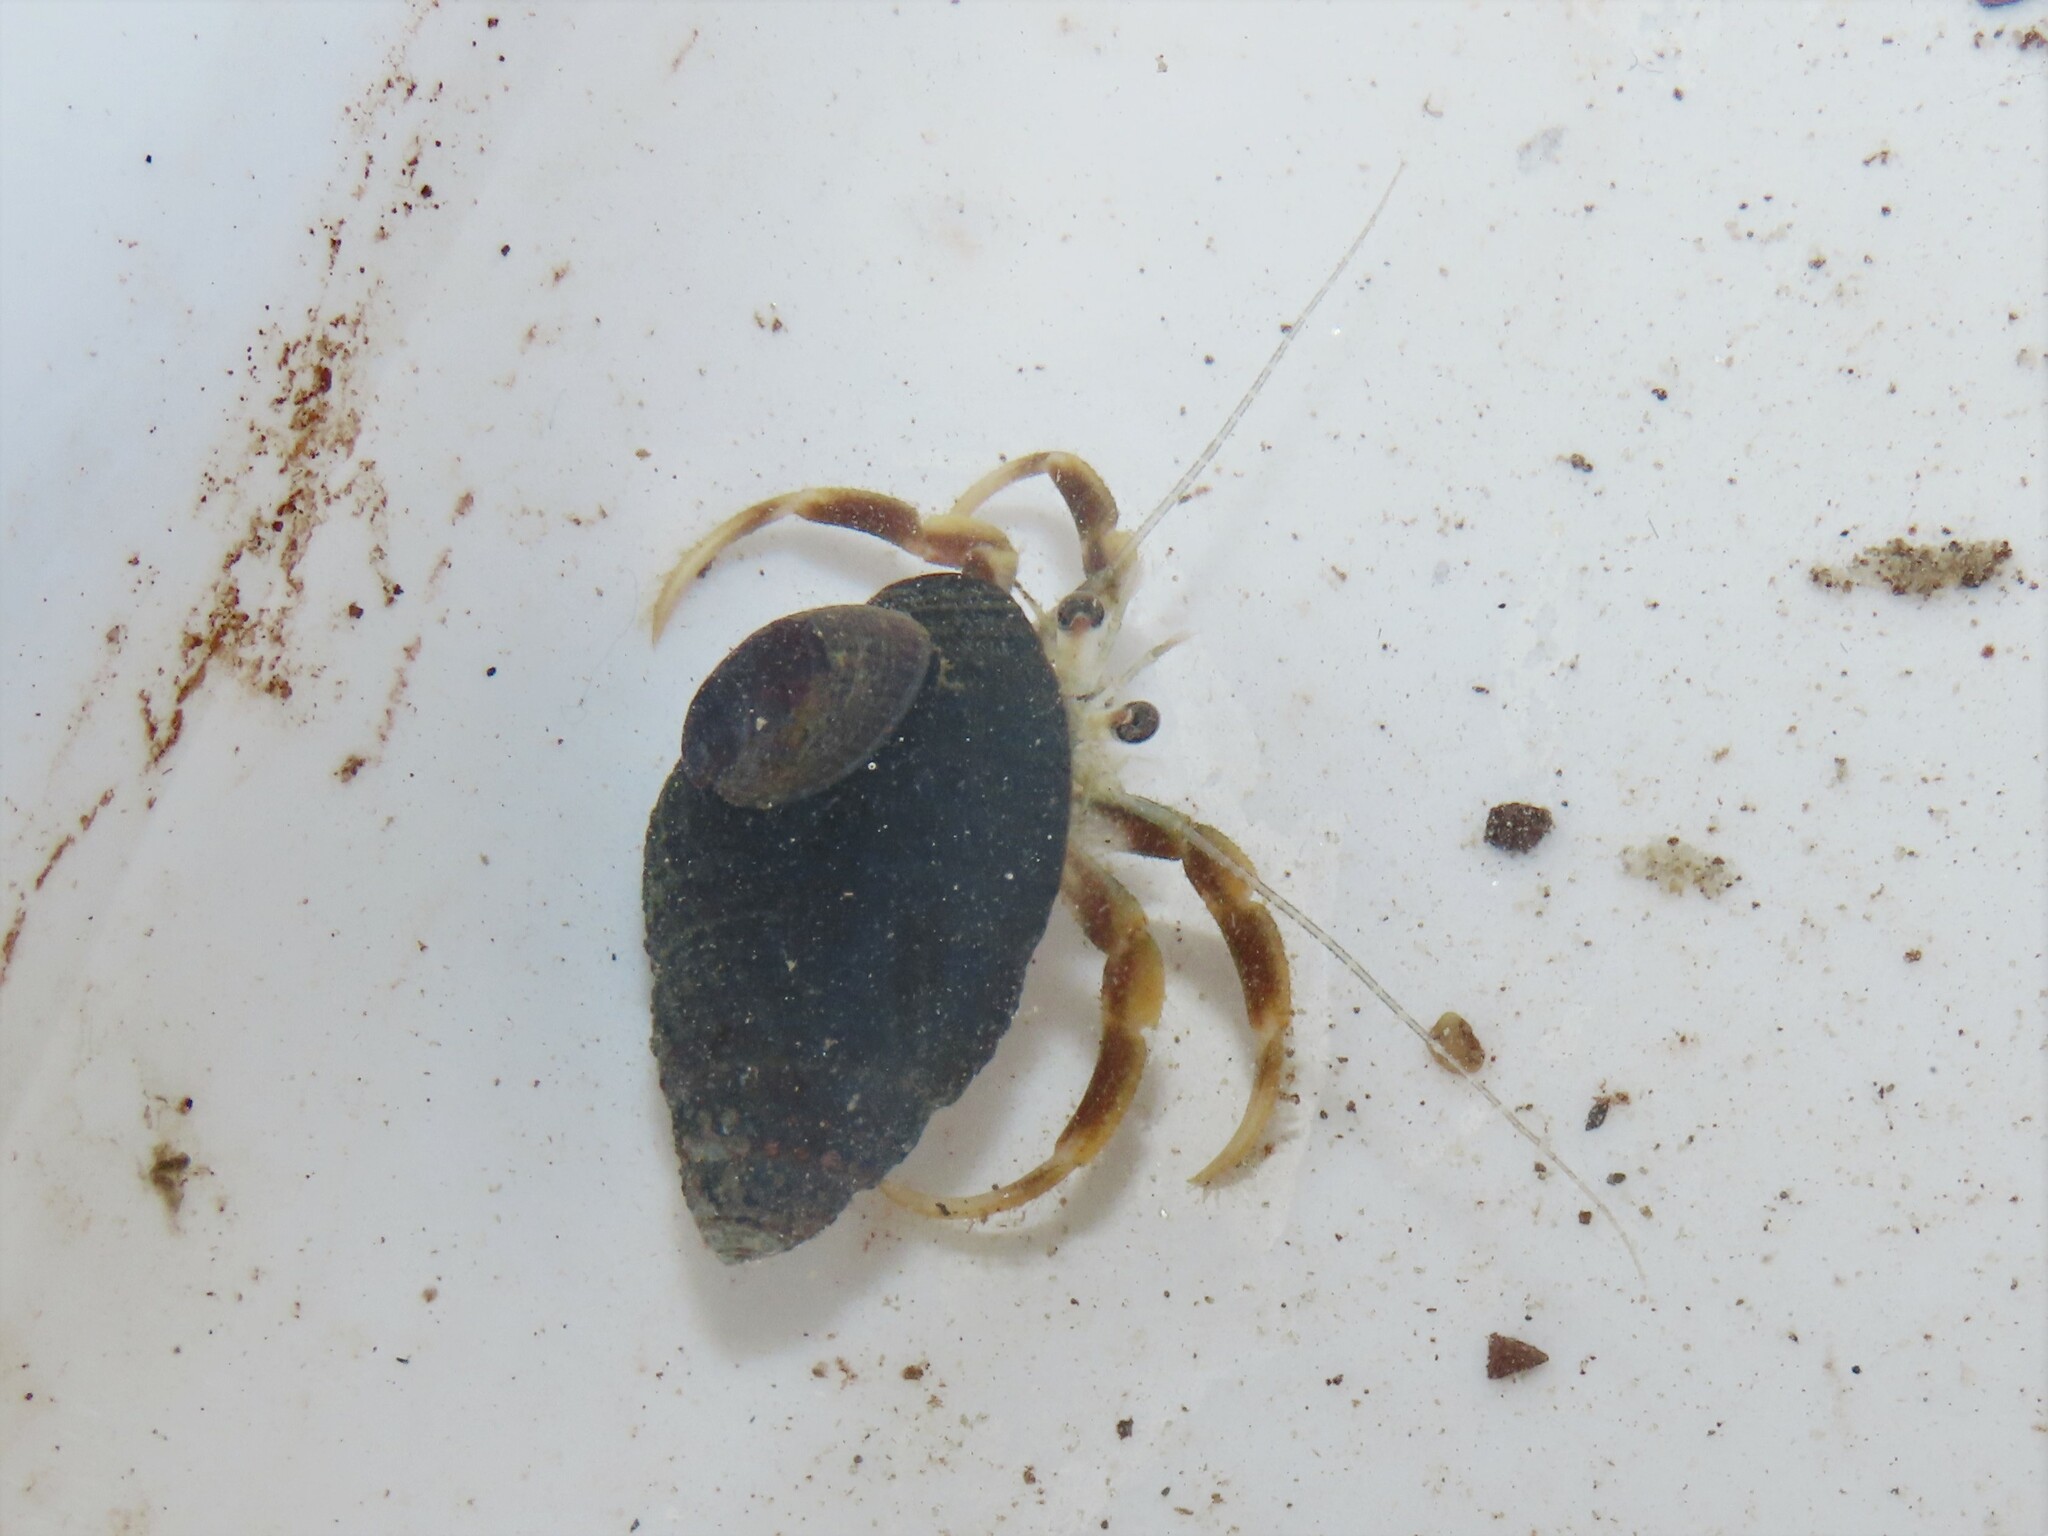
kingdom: Animalia
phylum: Arthropoda
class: Malacostraca
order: Decapoda
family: Paguridae
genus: Pagurus
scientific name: Pagurus longicarpus
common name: Long-armed hermit crab
